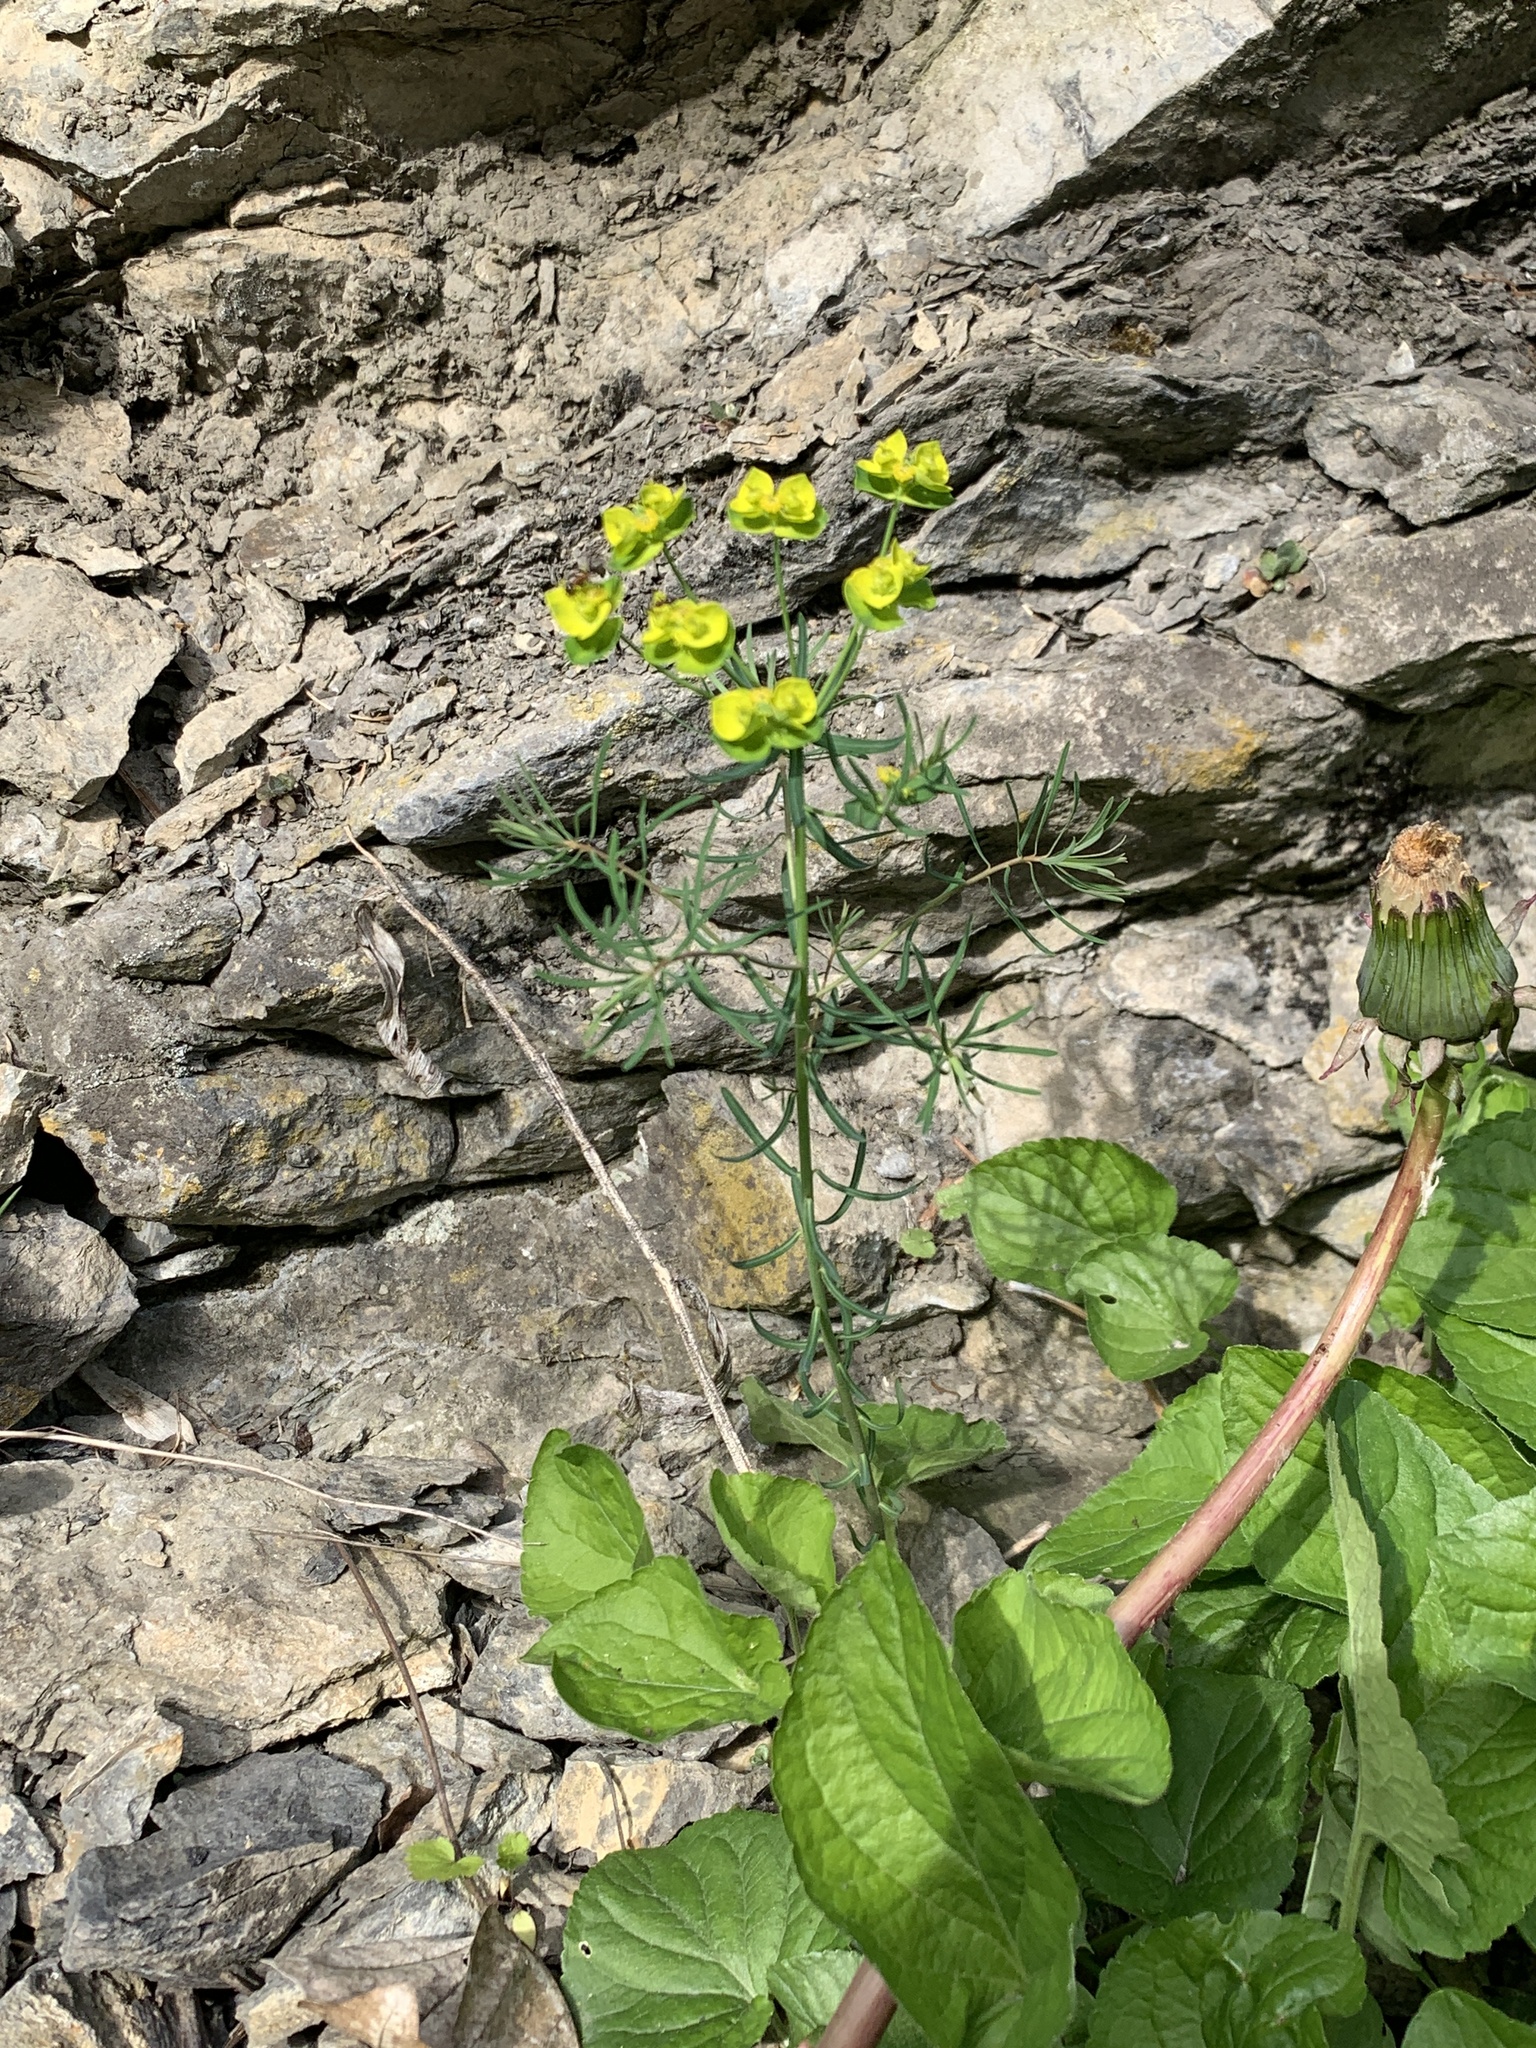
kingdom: Plantae
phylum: Tracheophyta
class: Magnoliopsida
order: Malpighiales
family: Euphorbiaceae
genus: Euphorbia
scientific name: Euphorbia cyparissias
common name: Cypress spurge
